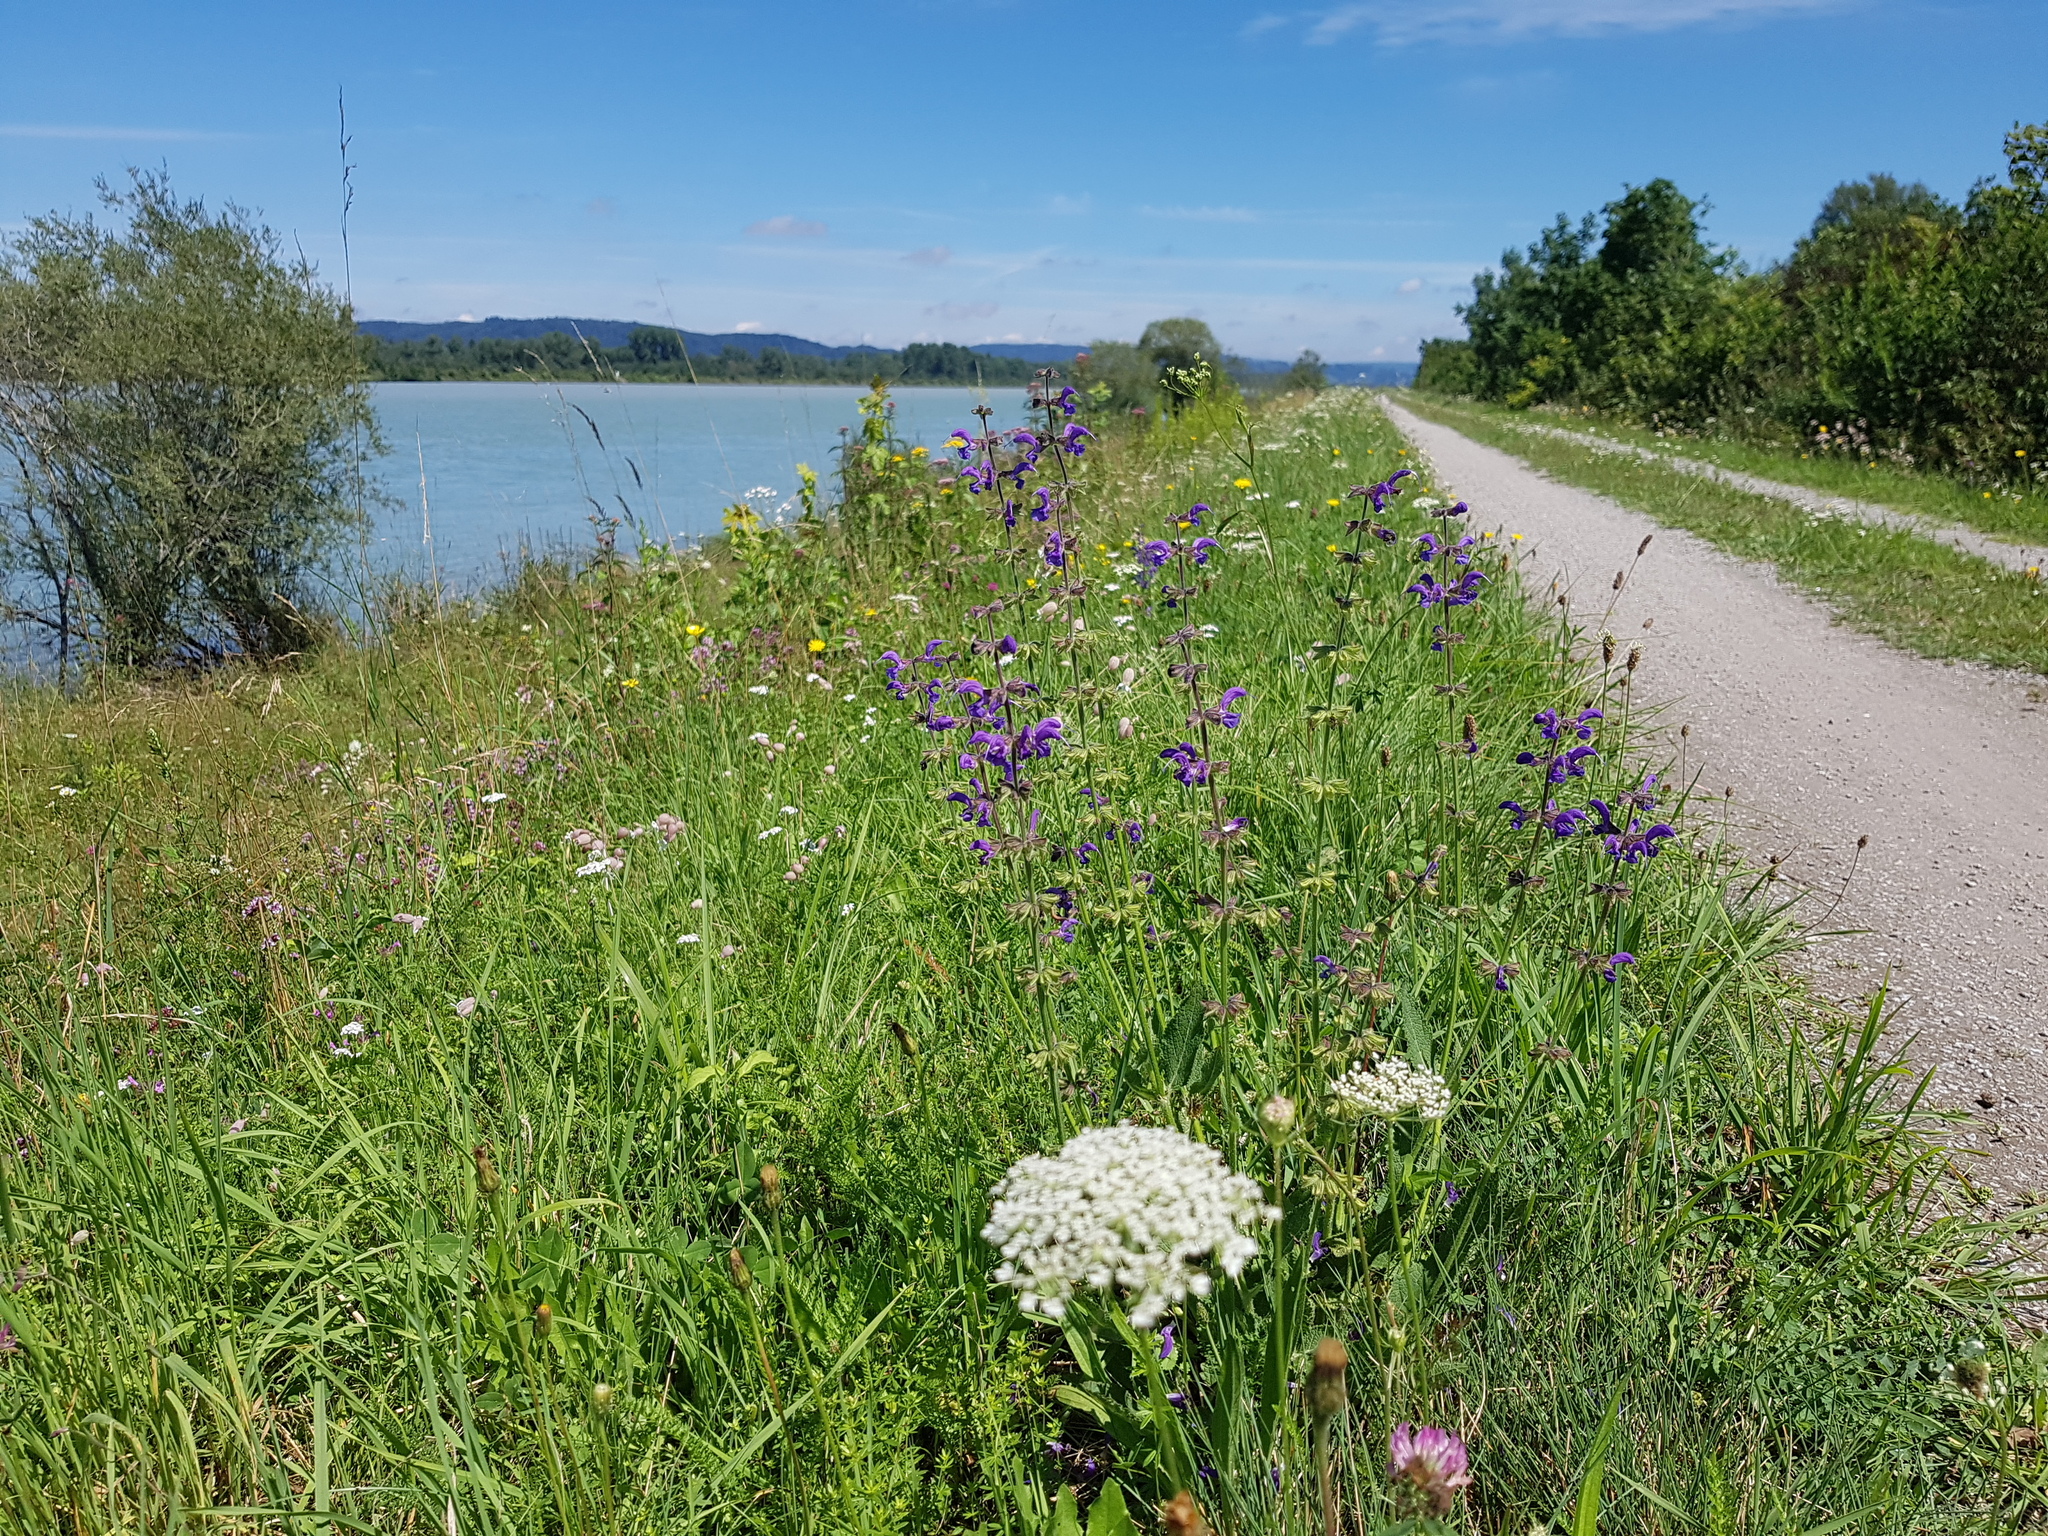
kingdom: Plantae
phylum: Tracheophyta
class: Magnoliopsida
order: Lamiales
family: Lamiaceae
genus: Salvia
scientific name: Salvia pratensis
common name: Meadow sage
